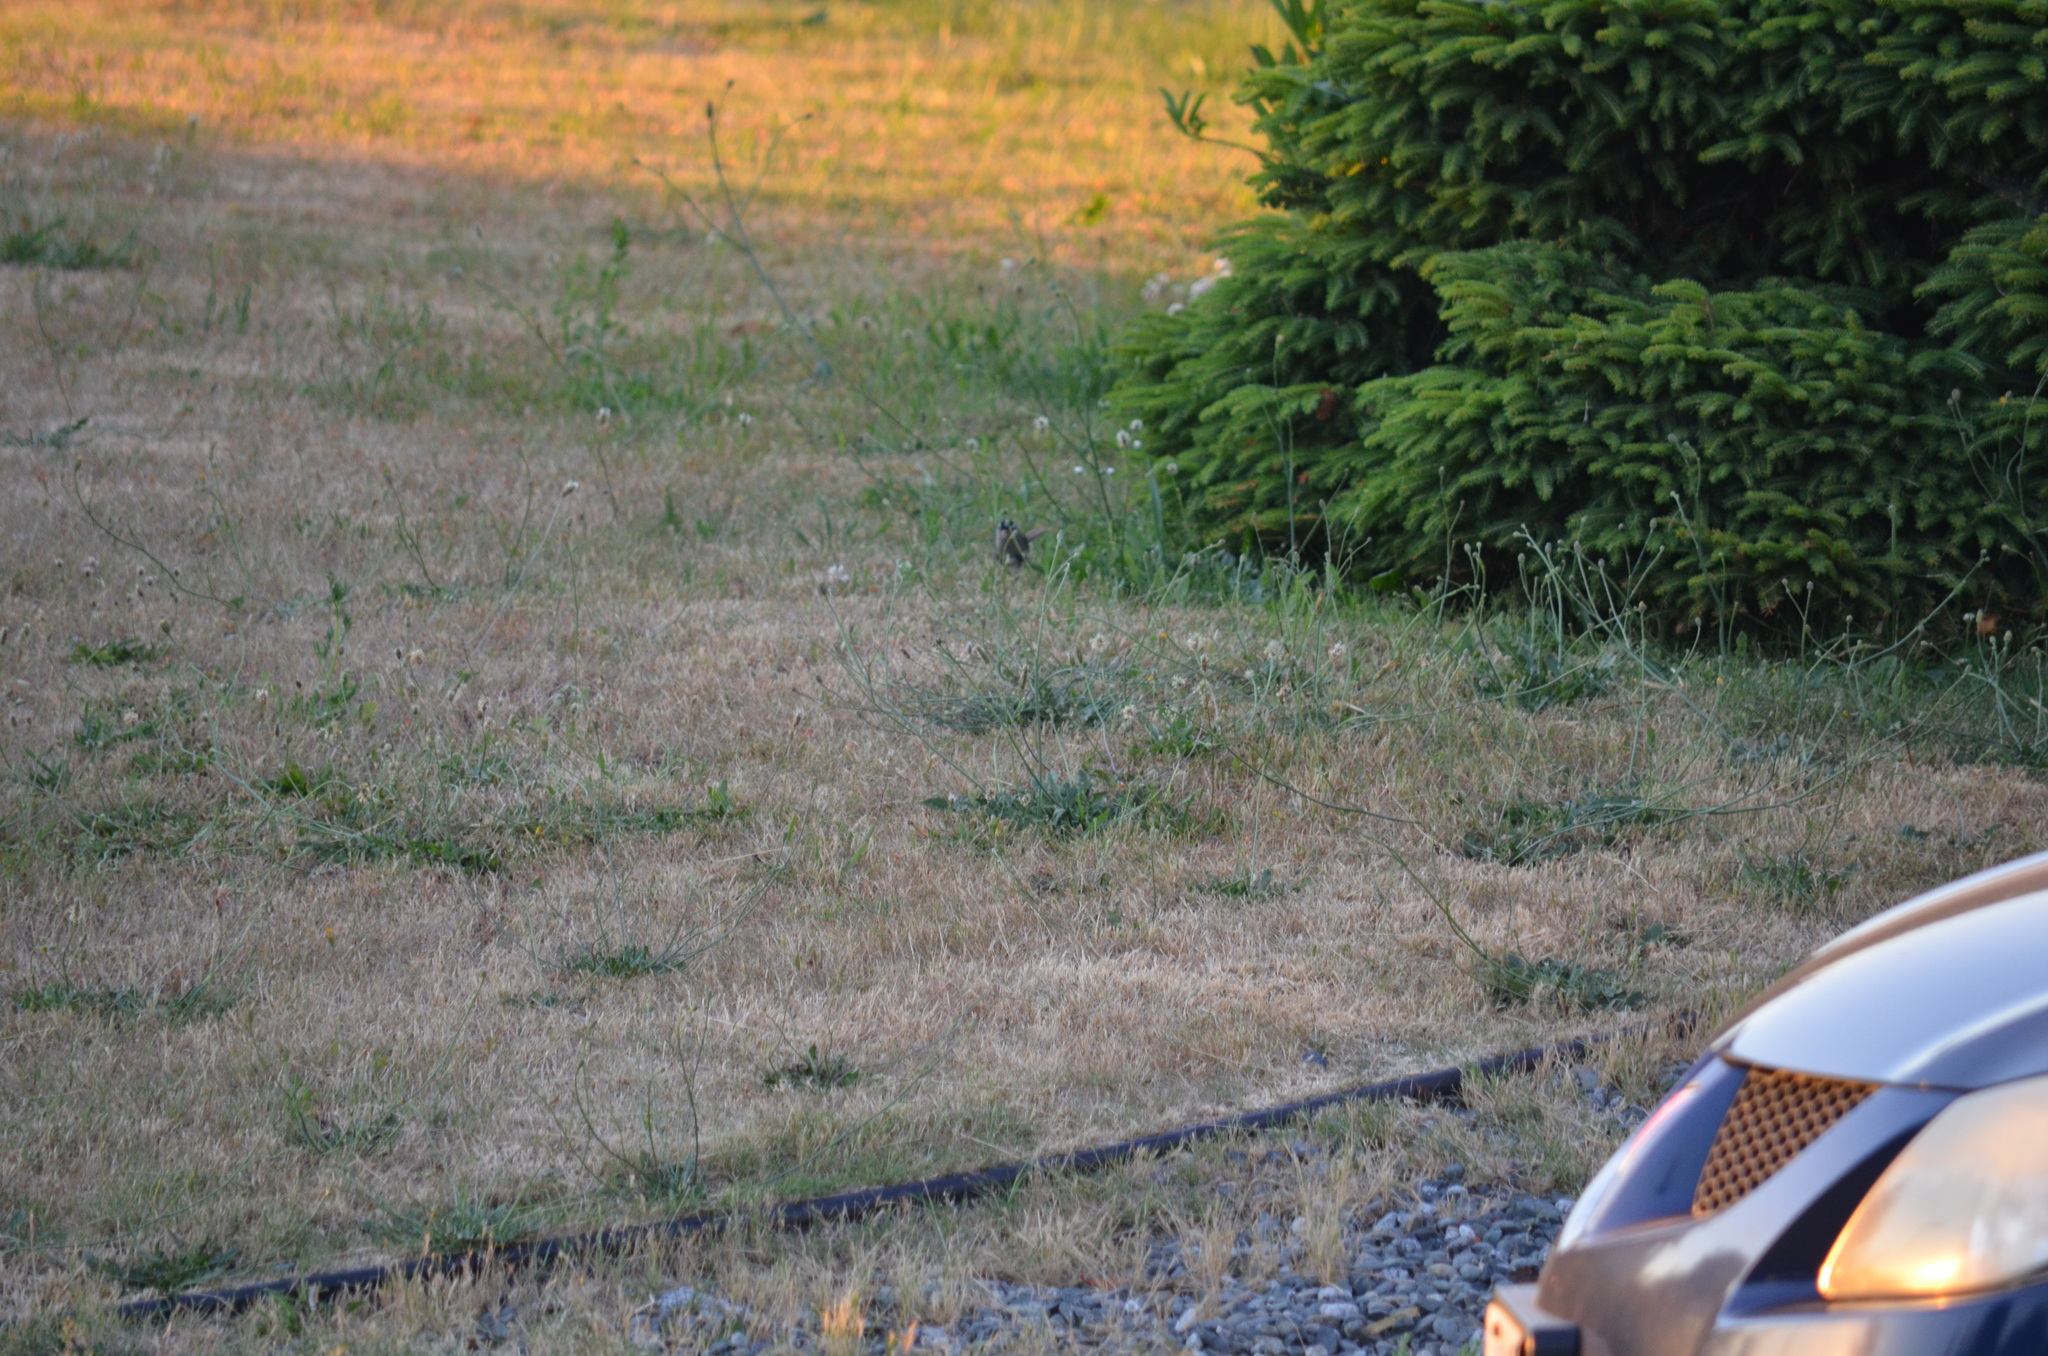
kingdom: Animalia
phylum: Chordata
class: Aves
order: Passeriformes
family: Passerellidae
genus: Zonotrichia
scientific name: Zonotrichia leucophrys
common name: White-crowned sparrow
